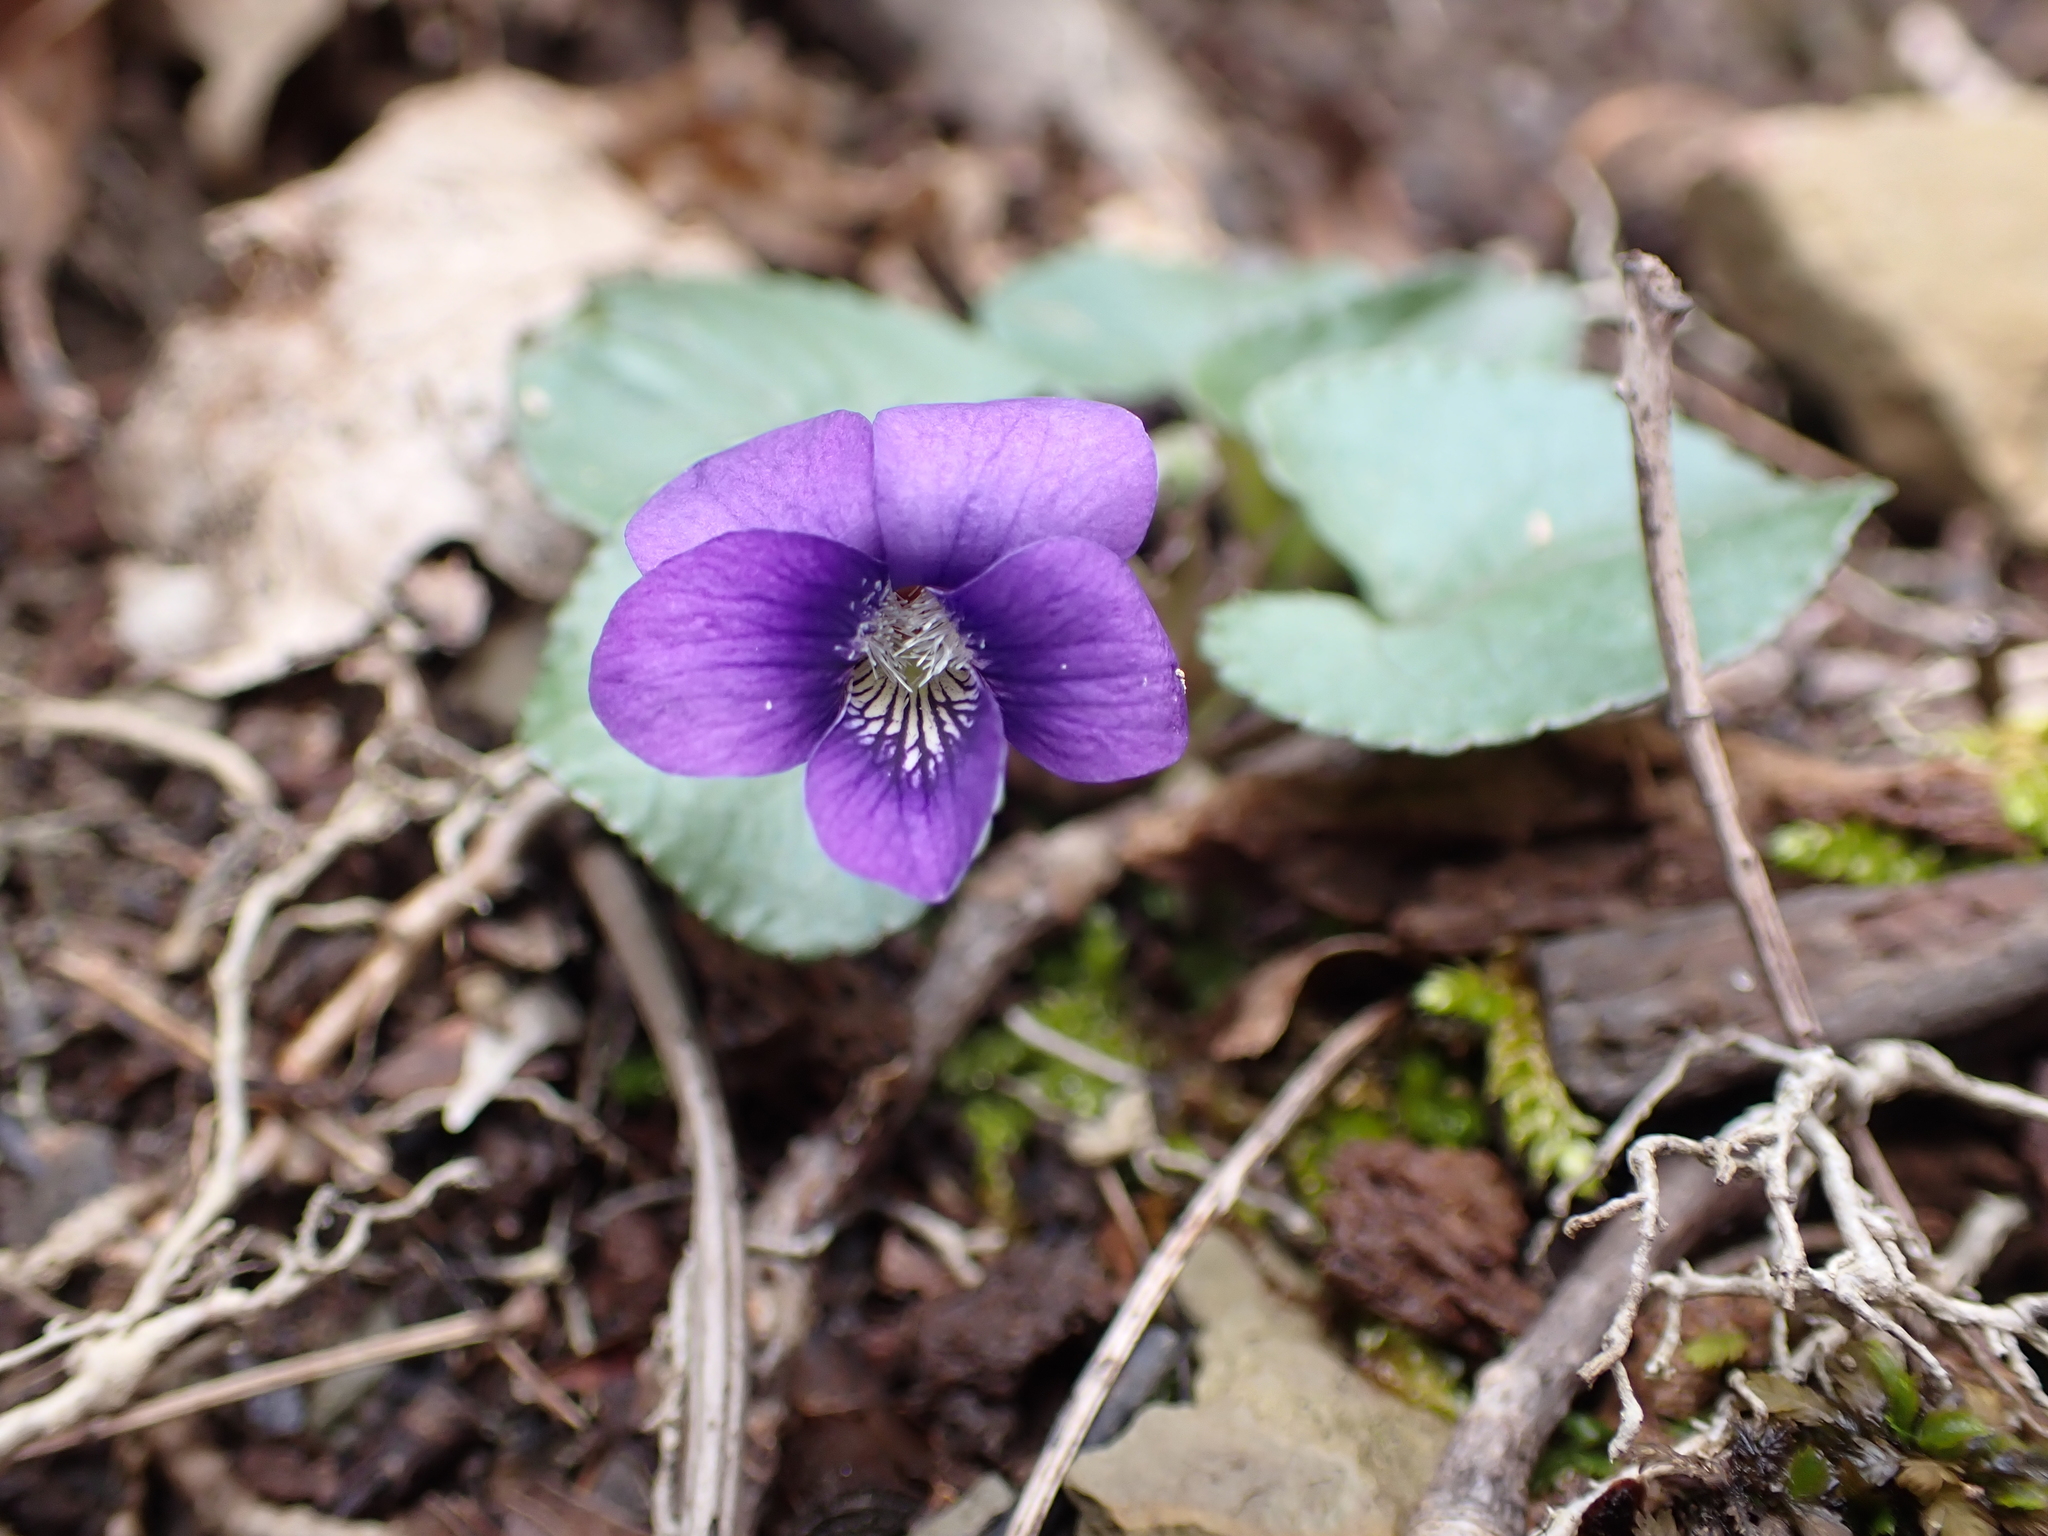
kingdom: Plantae
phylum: Tracheophyta
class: Magnoliopsida
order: Malpighiales
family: Violaceae
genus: Viola
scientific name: Viola hirsutula
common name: Southern wood violet
